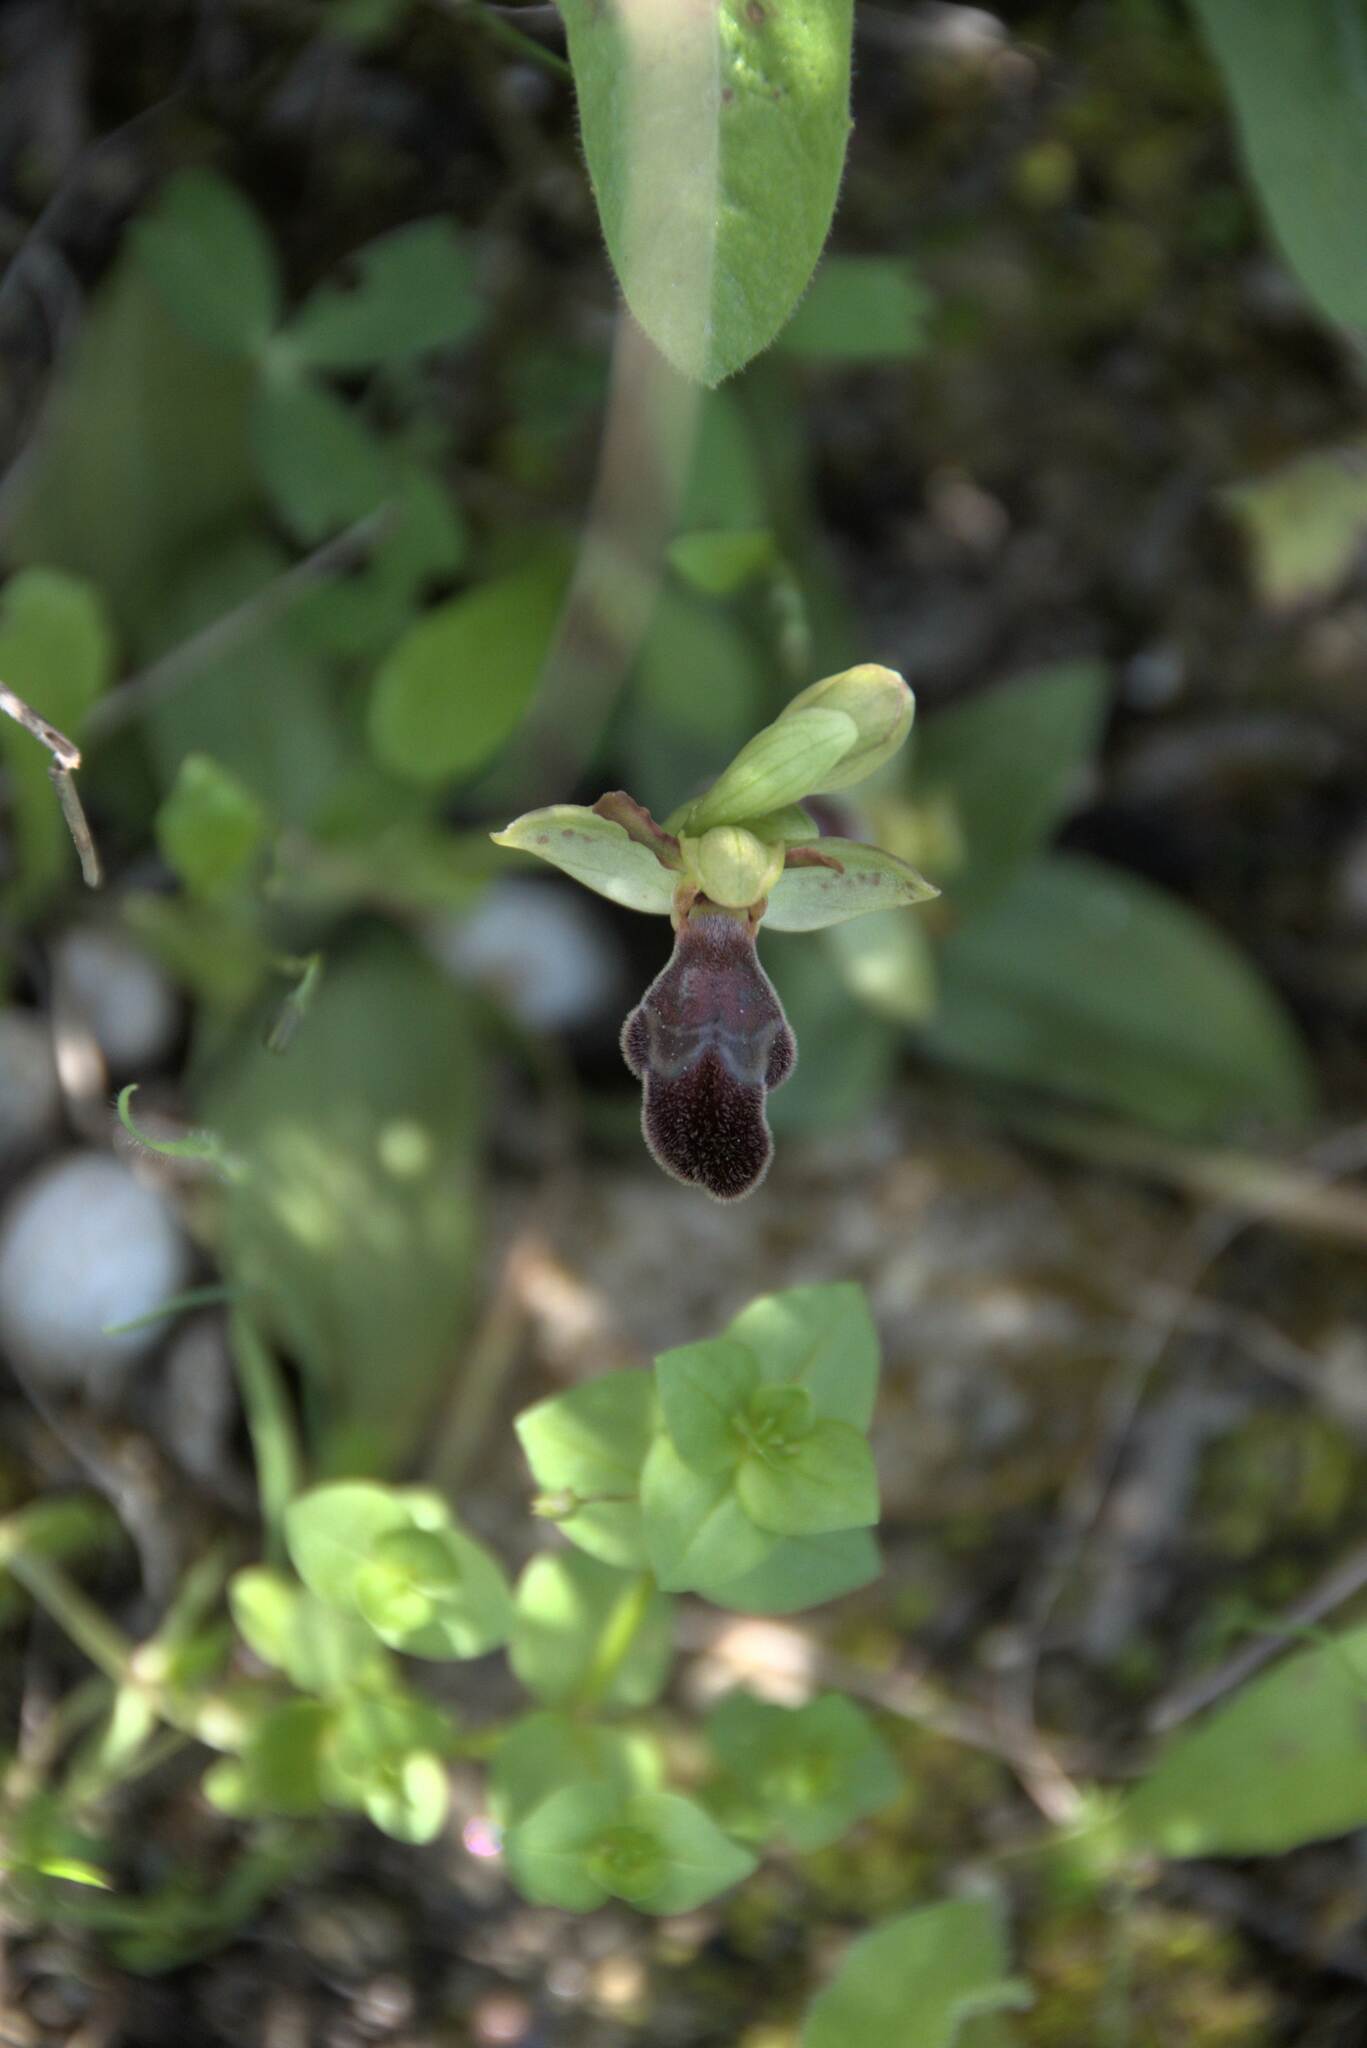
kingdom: Plantae
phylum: Tracheophyta
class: Liliopsida
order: Asparagales
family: Orchidaceae
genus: Ophrys
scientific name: Ophrys omegaifera
